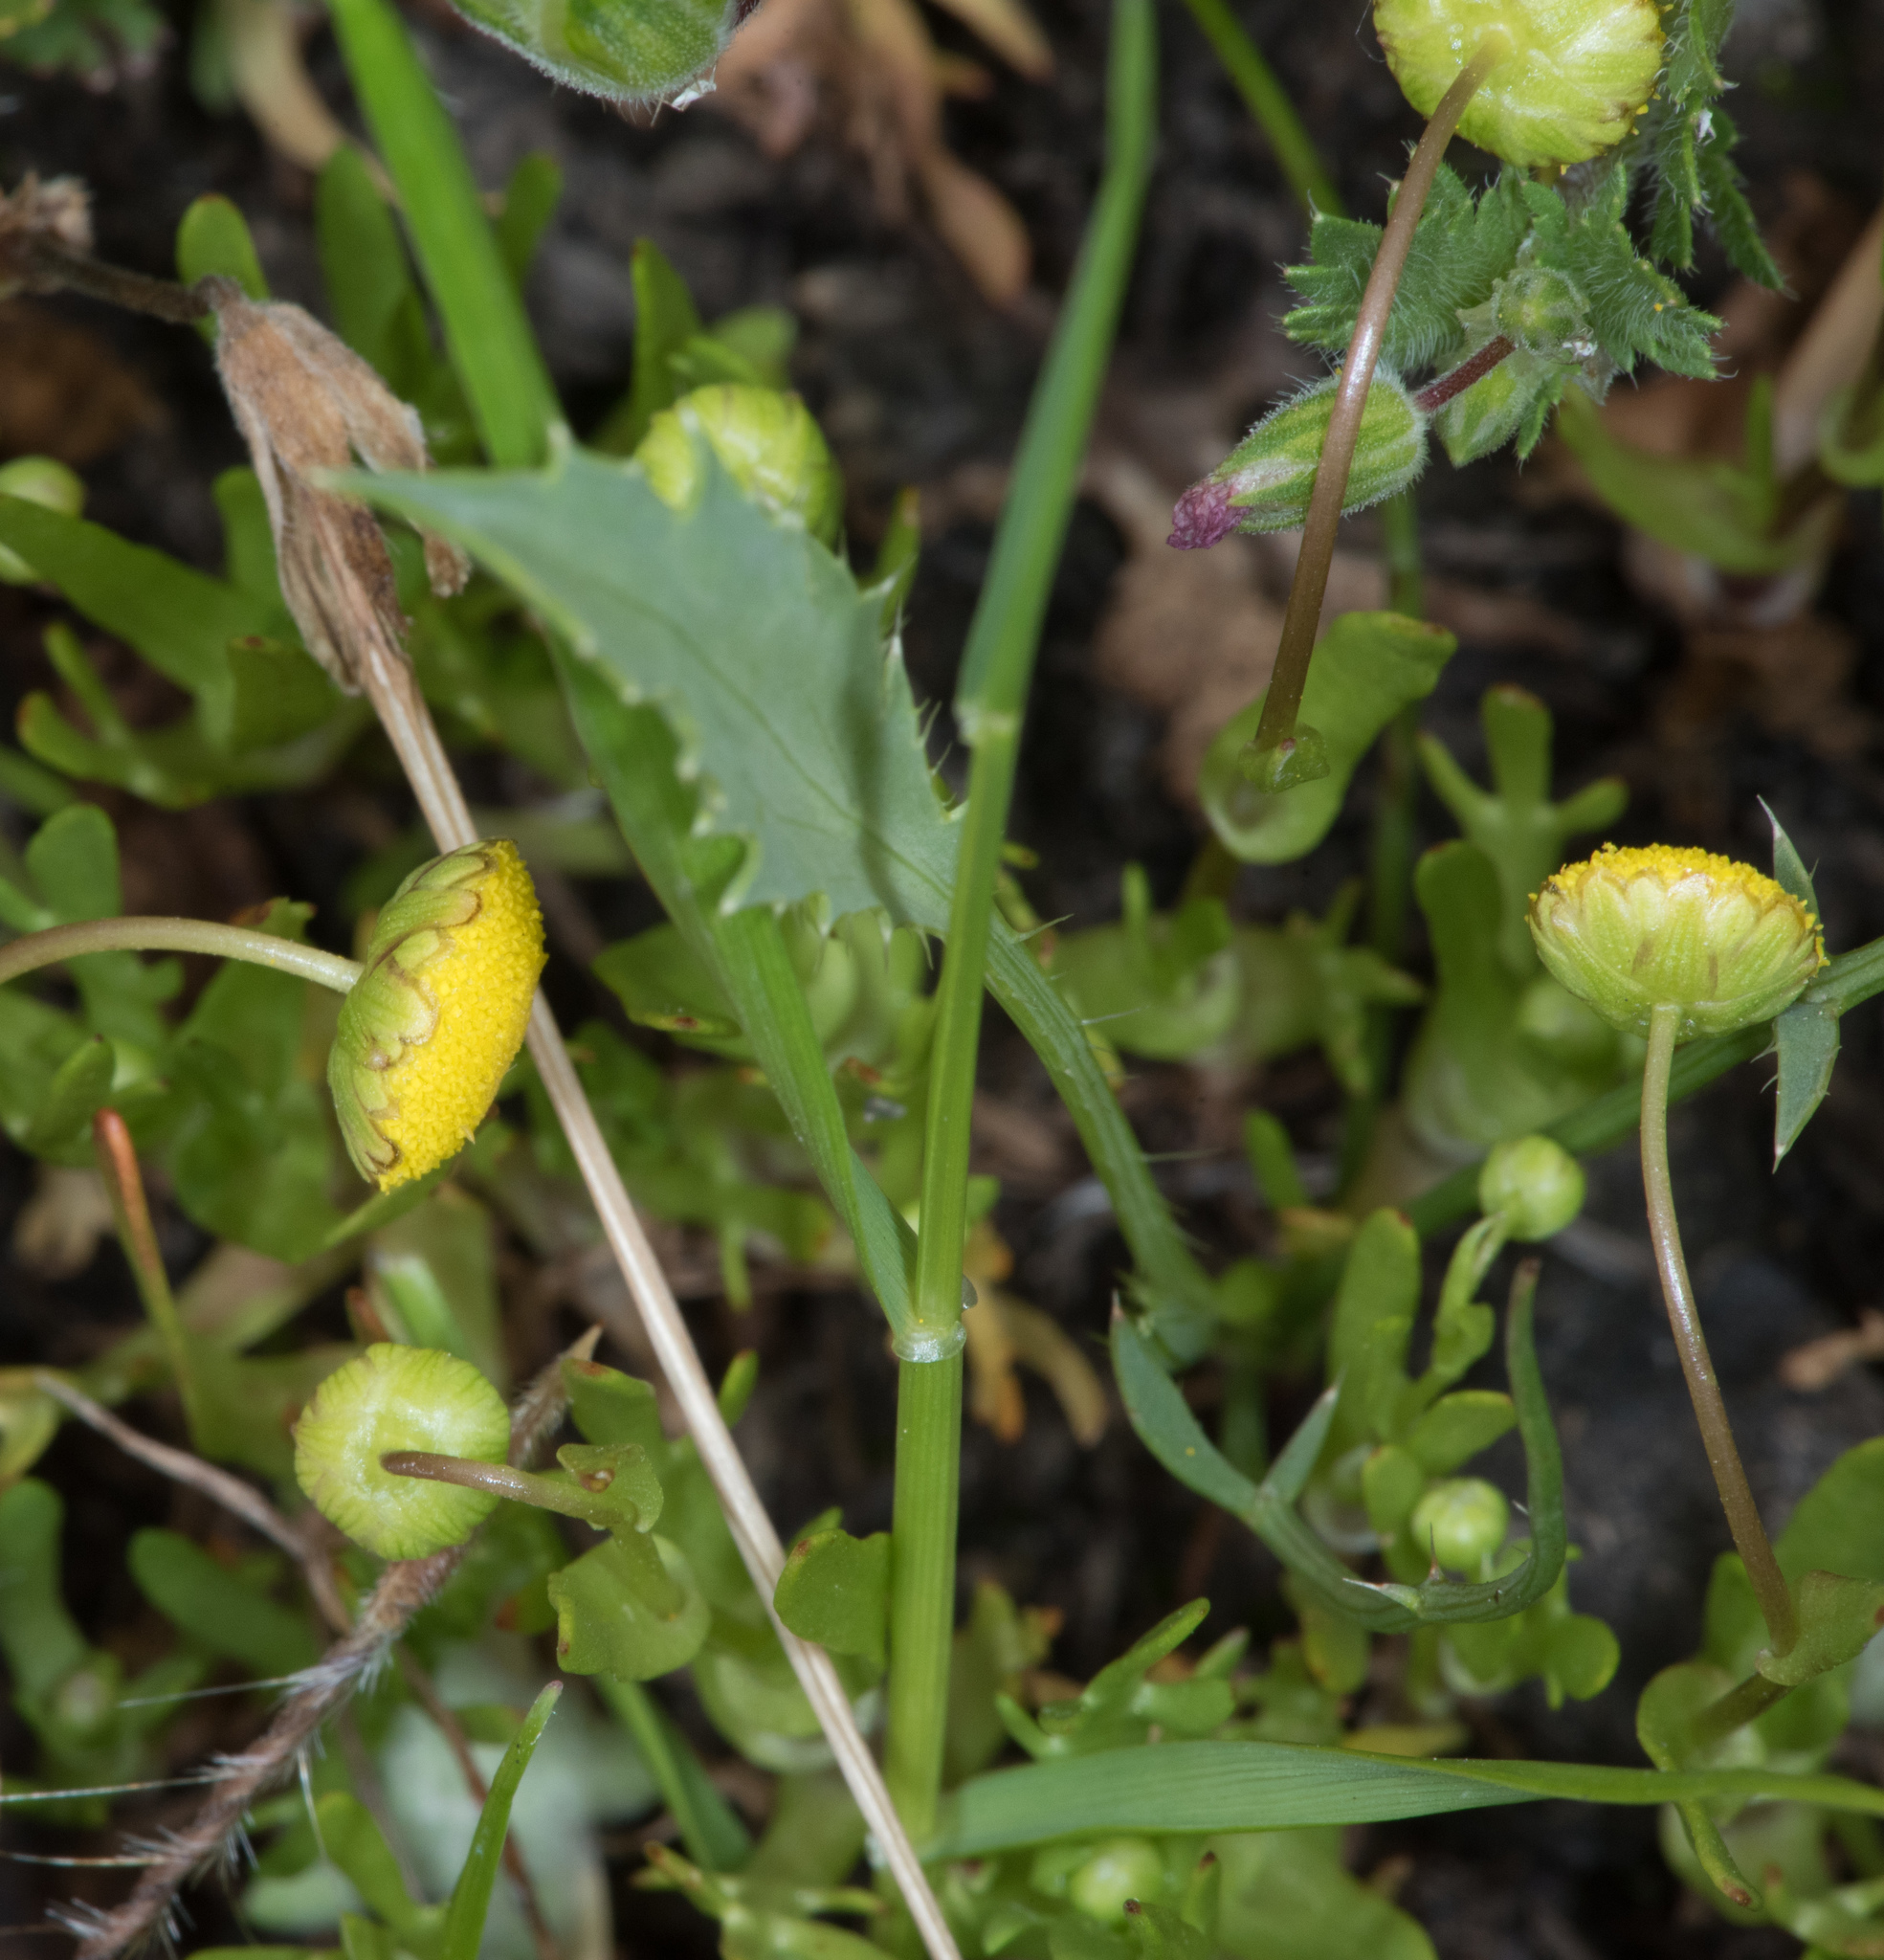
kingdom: Plantae
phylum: Tracheophyta
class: Magnoliopsida
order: Asterales
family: Asteraceae
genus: Cotula
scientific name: Cotula coronopifolia
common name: Buttonweed
